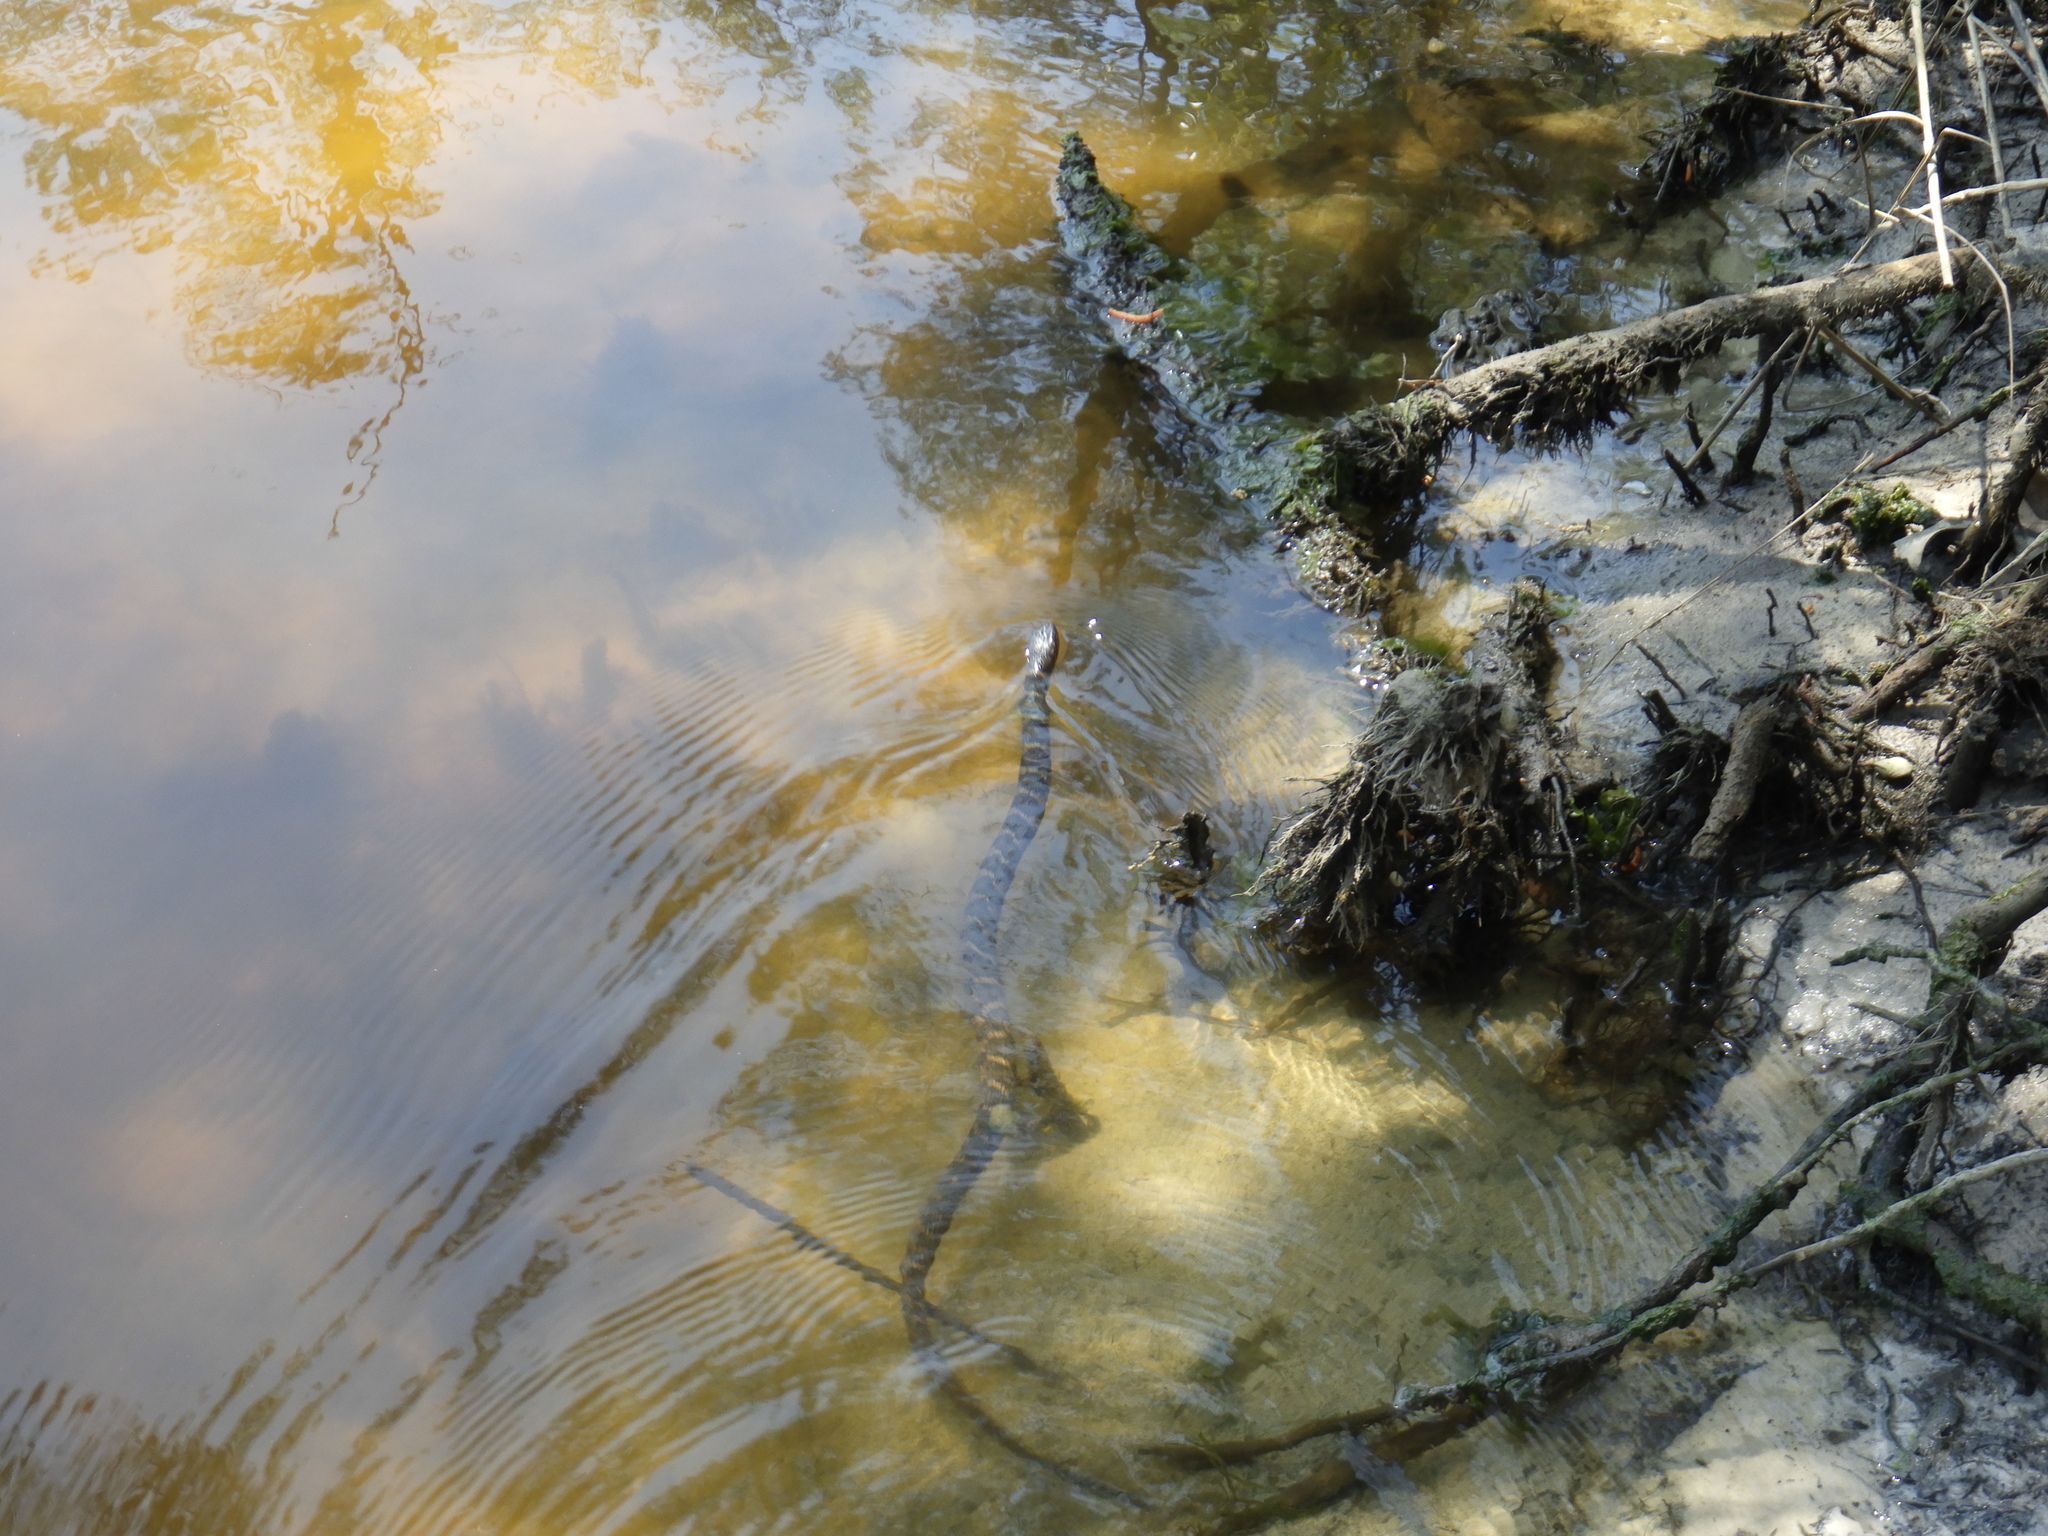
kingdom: Animalia
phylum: Chordata
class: Squamata
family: Colubridae
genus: Nerodia
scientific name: Nerodia sipedon
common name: Northern water snake
